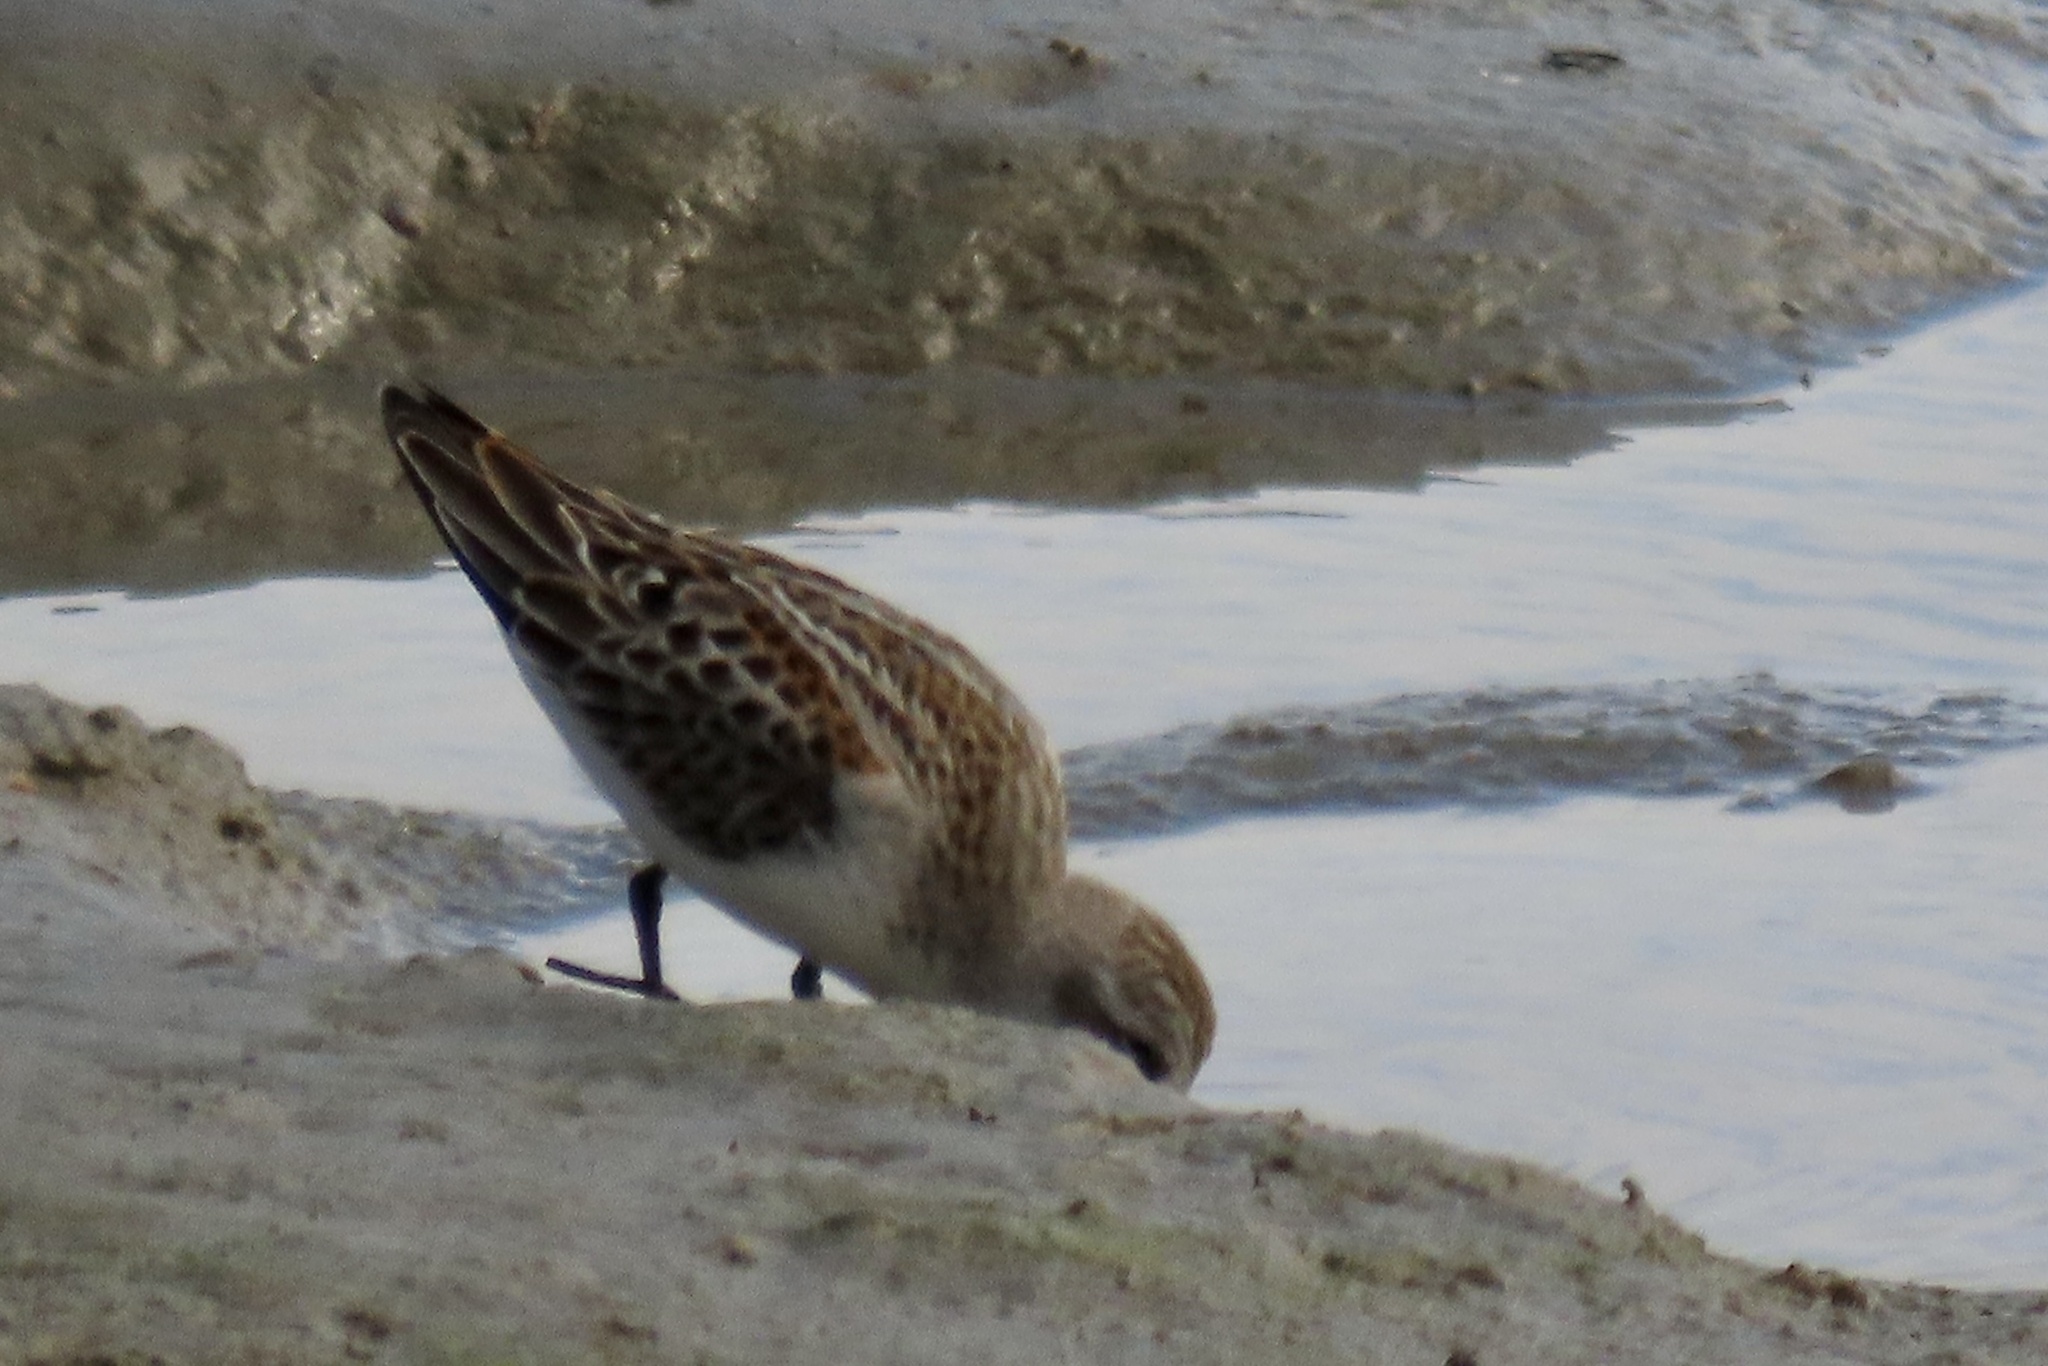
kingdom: Animalia
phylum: Chordata
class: Aves
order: Charadriiformes
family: Scolopacidae
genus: Calidris
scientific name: Calidris mauri
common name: Western sandpiper
